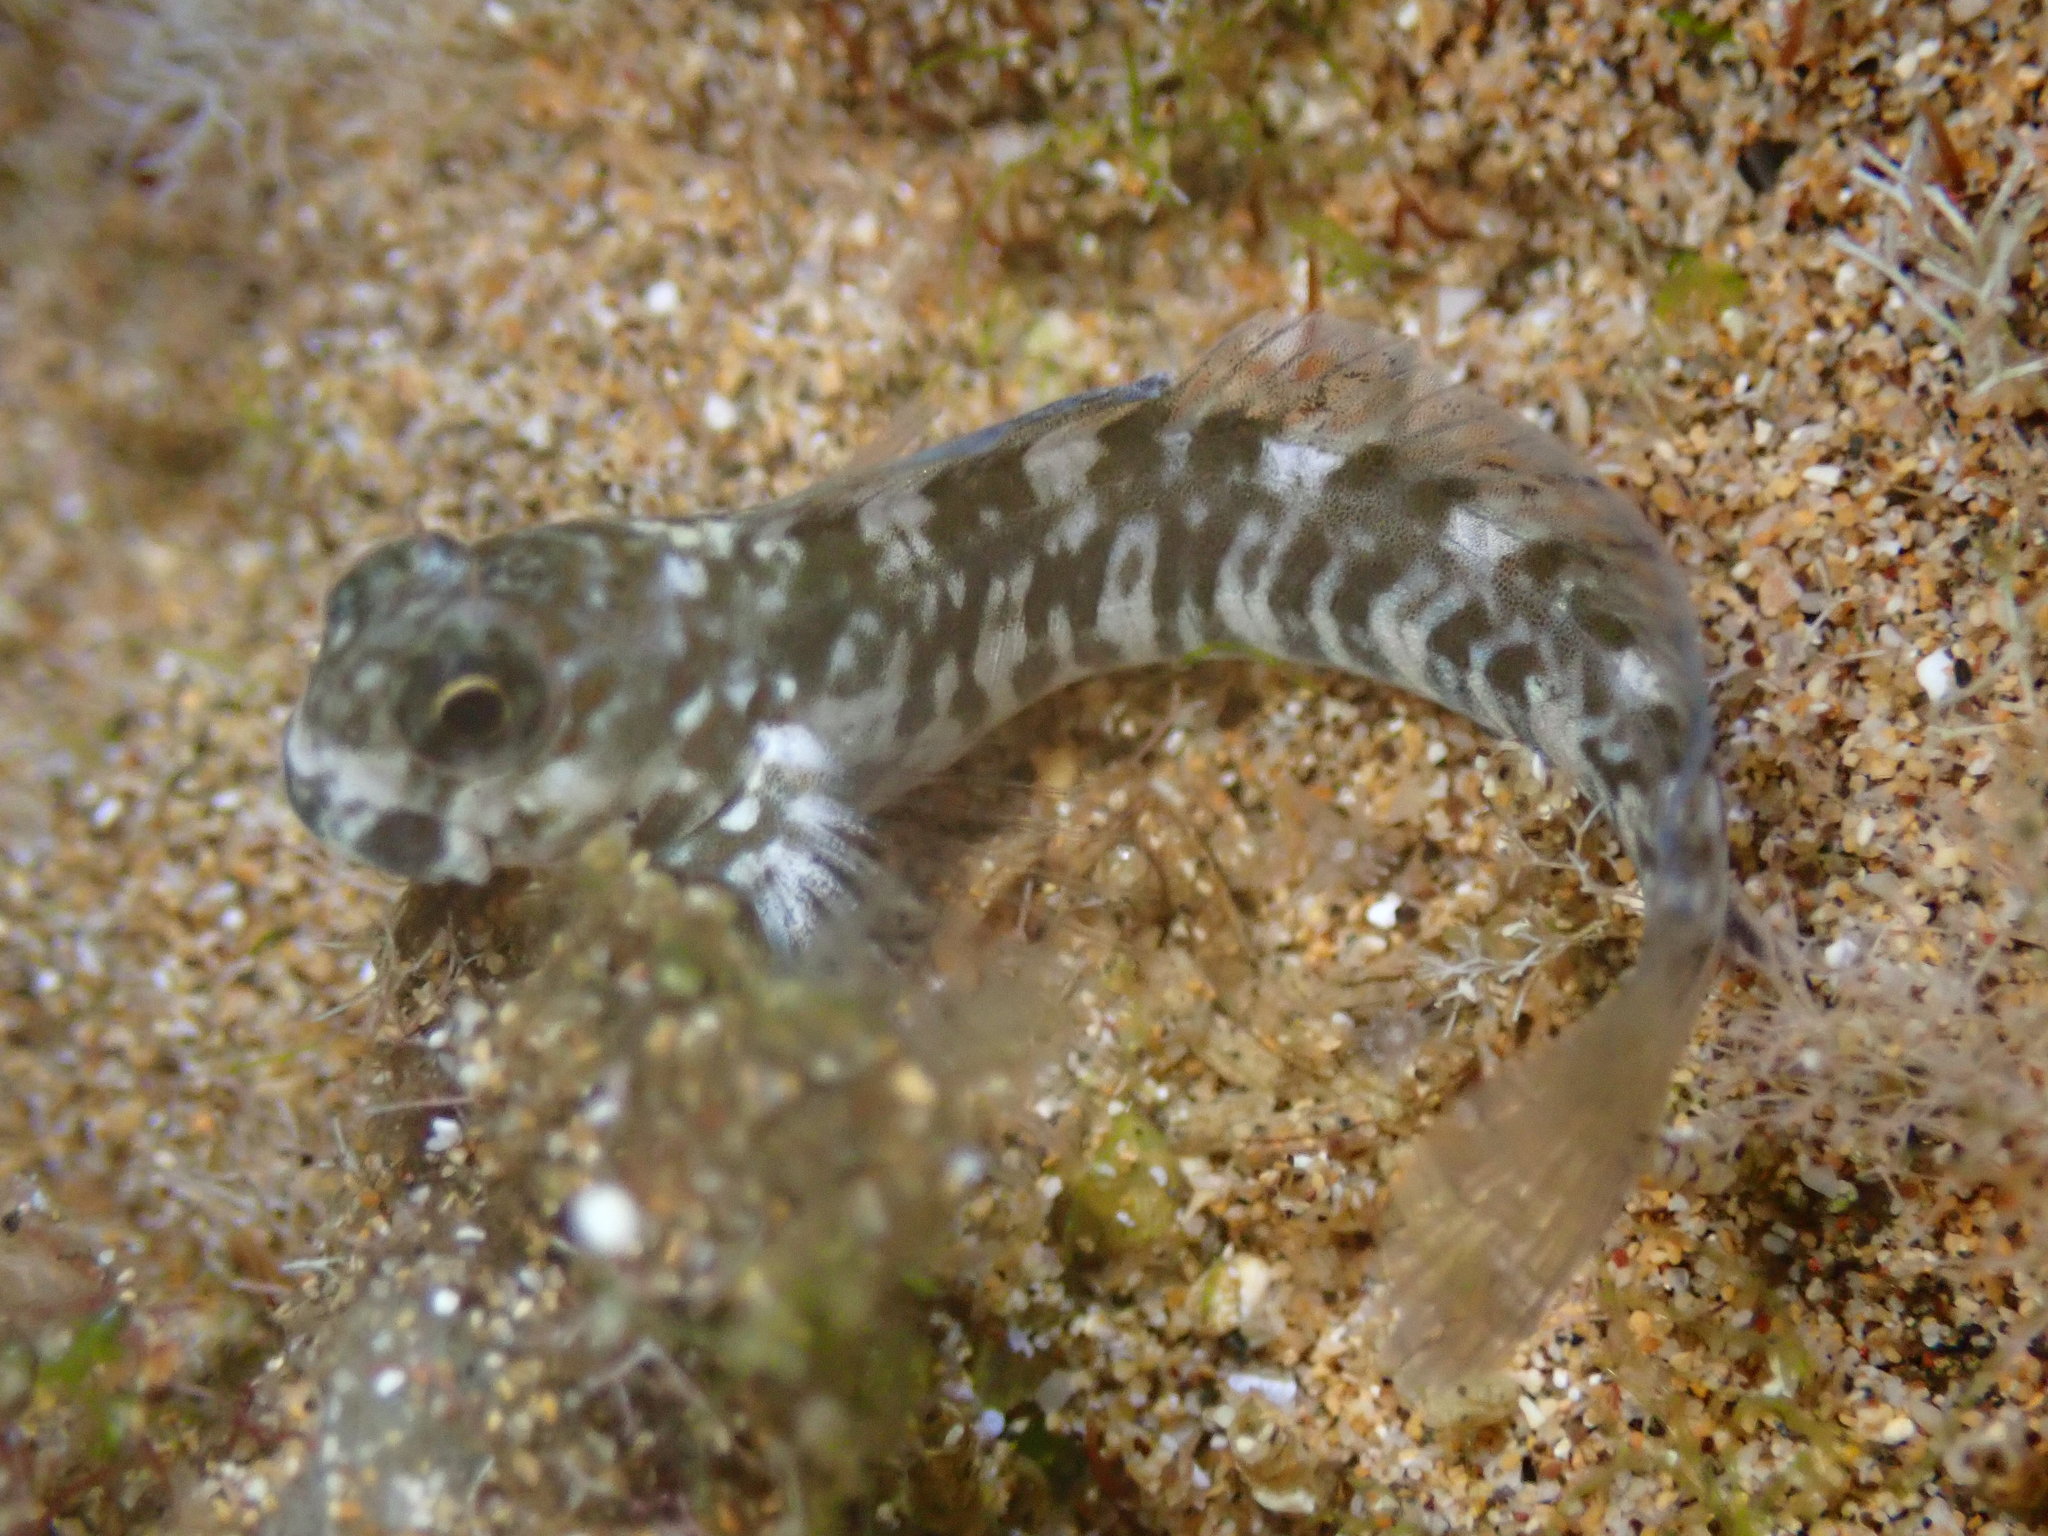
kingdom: Animalia
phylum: Chordata
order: Perciformes
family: Blenniidae
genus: Istiblennius
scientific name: Istiblennius zebra
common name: Zebra blenny
